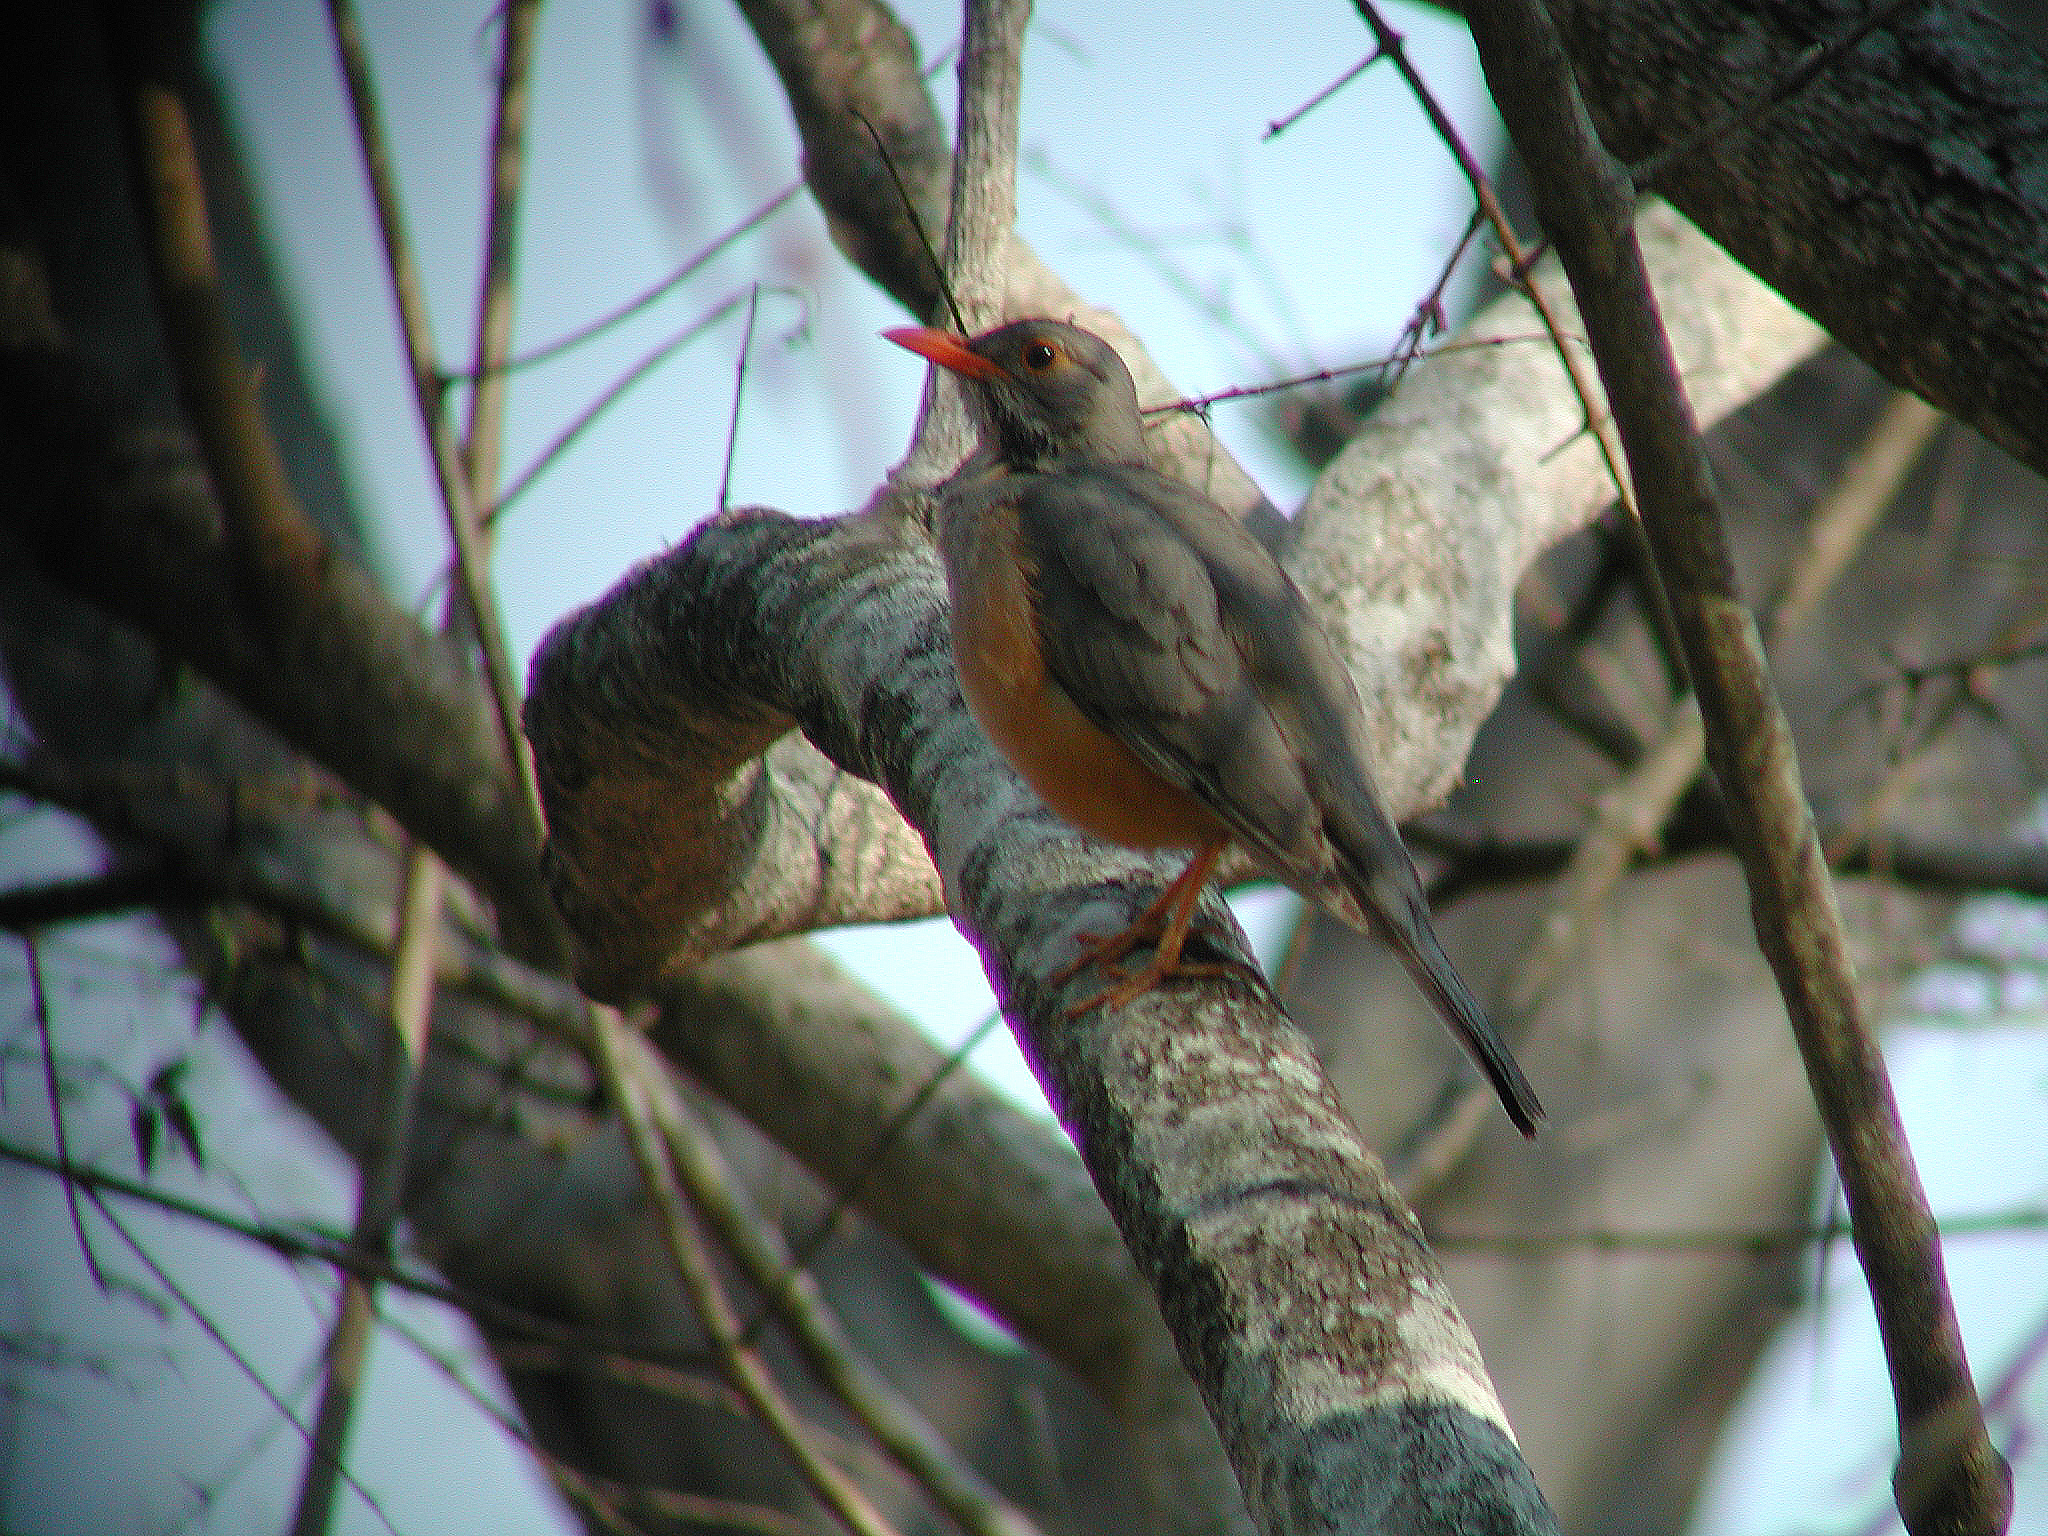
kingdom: Animalia
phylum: Chordata
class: Aves
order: Passeriformes
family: Turdidae
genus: Turdus
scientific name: Turdus libonyana
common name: Kurrichane thrush
